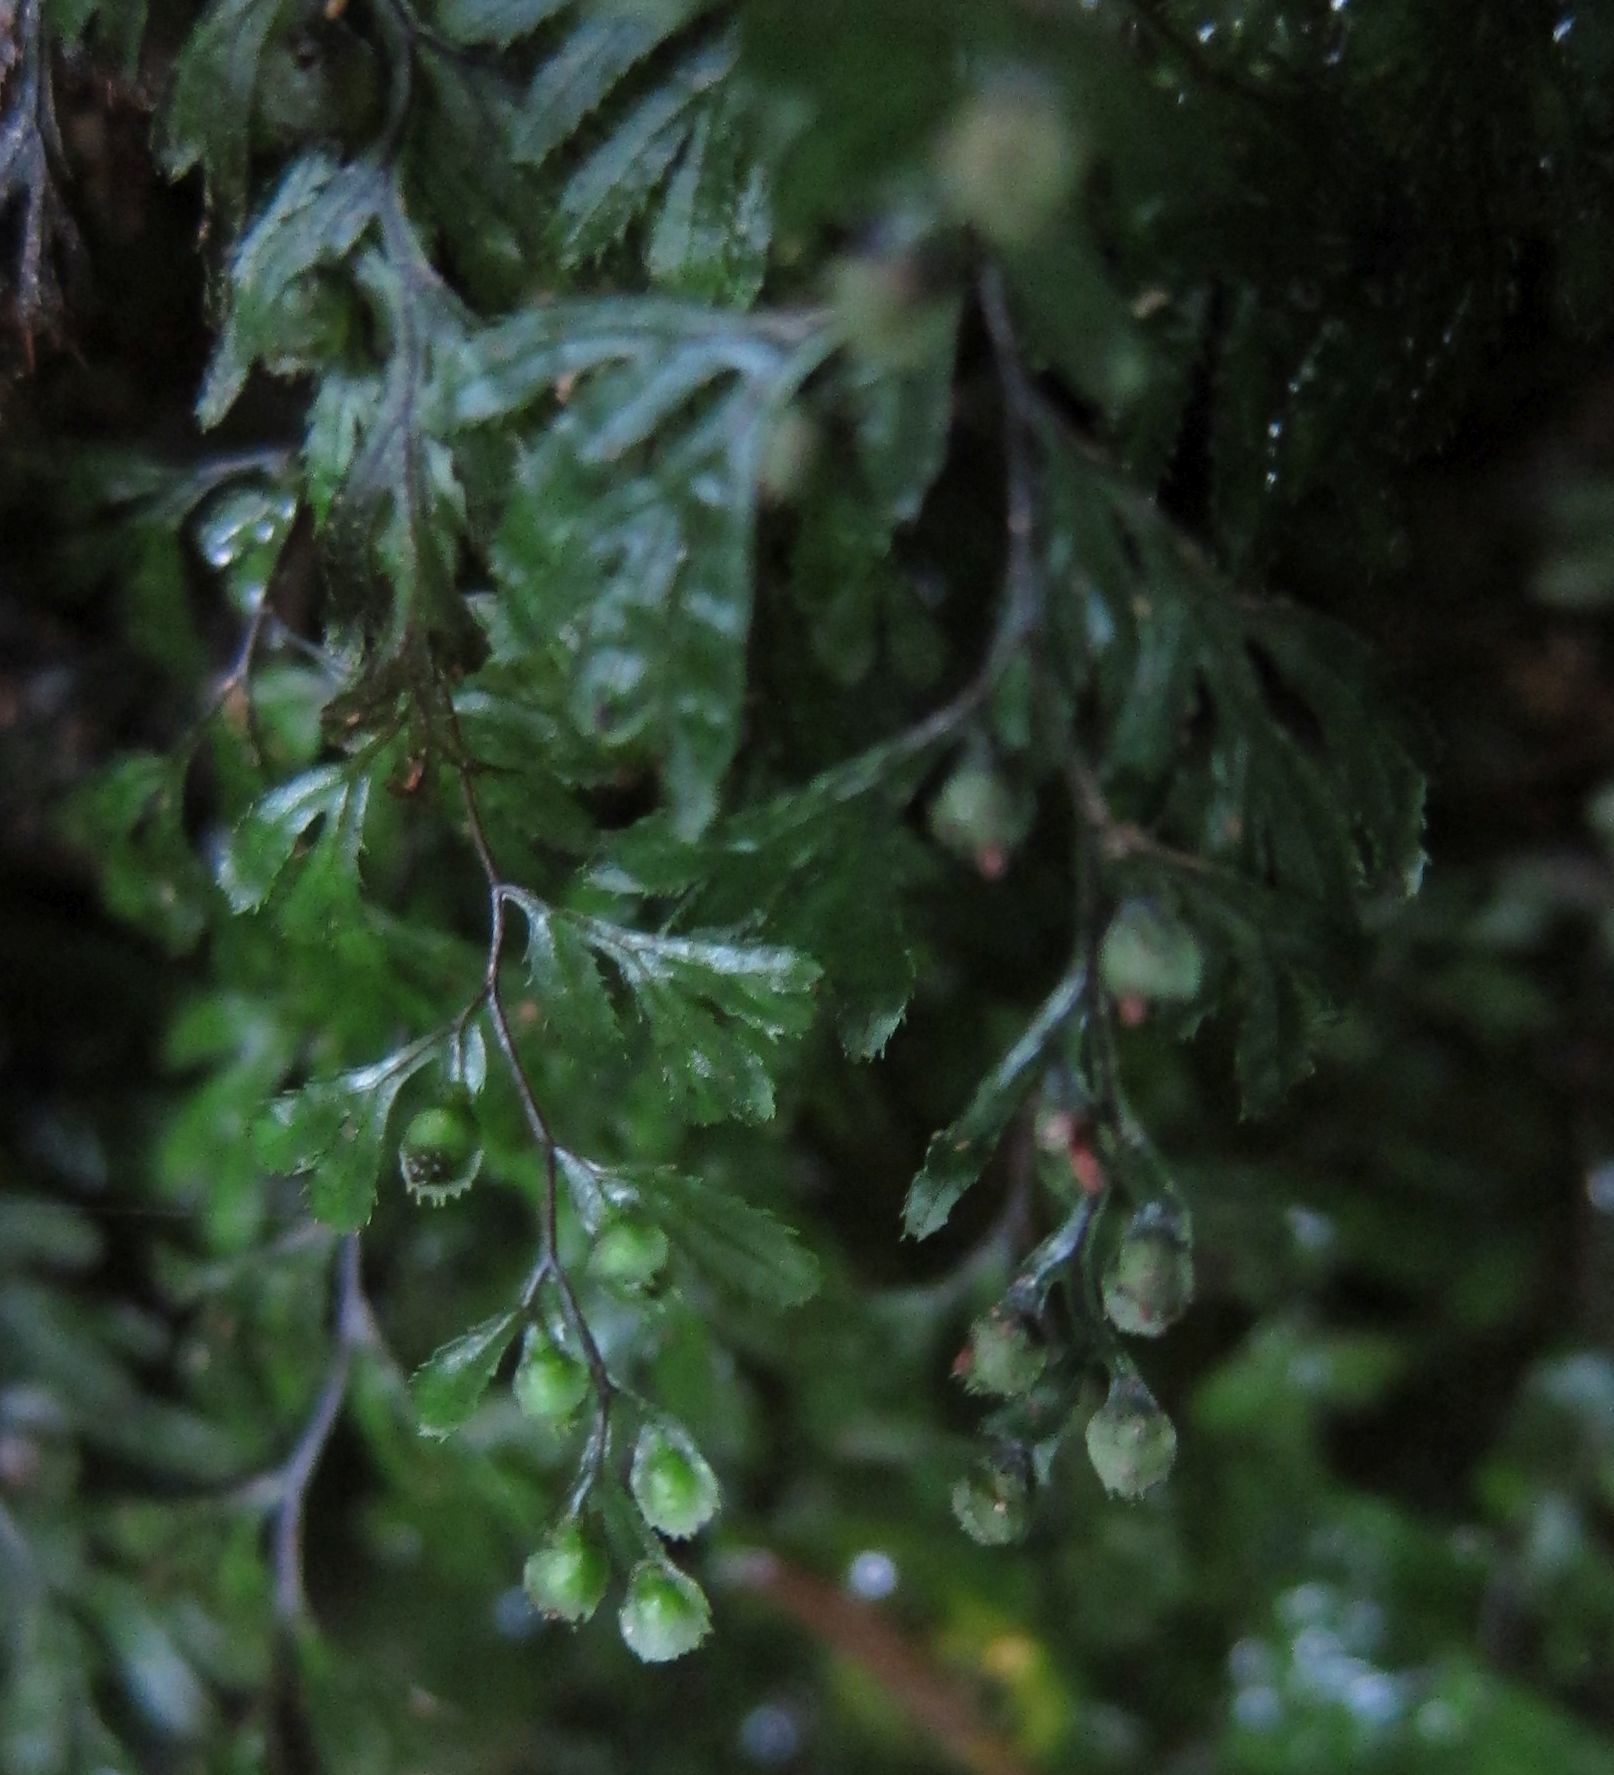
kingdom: Plantae
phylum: Tracheophyta
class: Polypodiopsida
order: Hymenophyllales
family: Hymenophyllaceae
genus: Hymenophyllum
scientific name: Hymenophyllum revolutum
